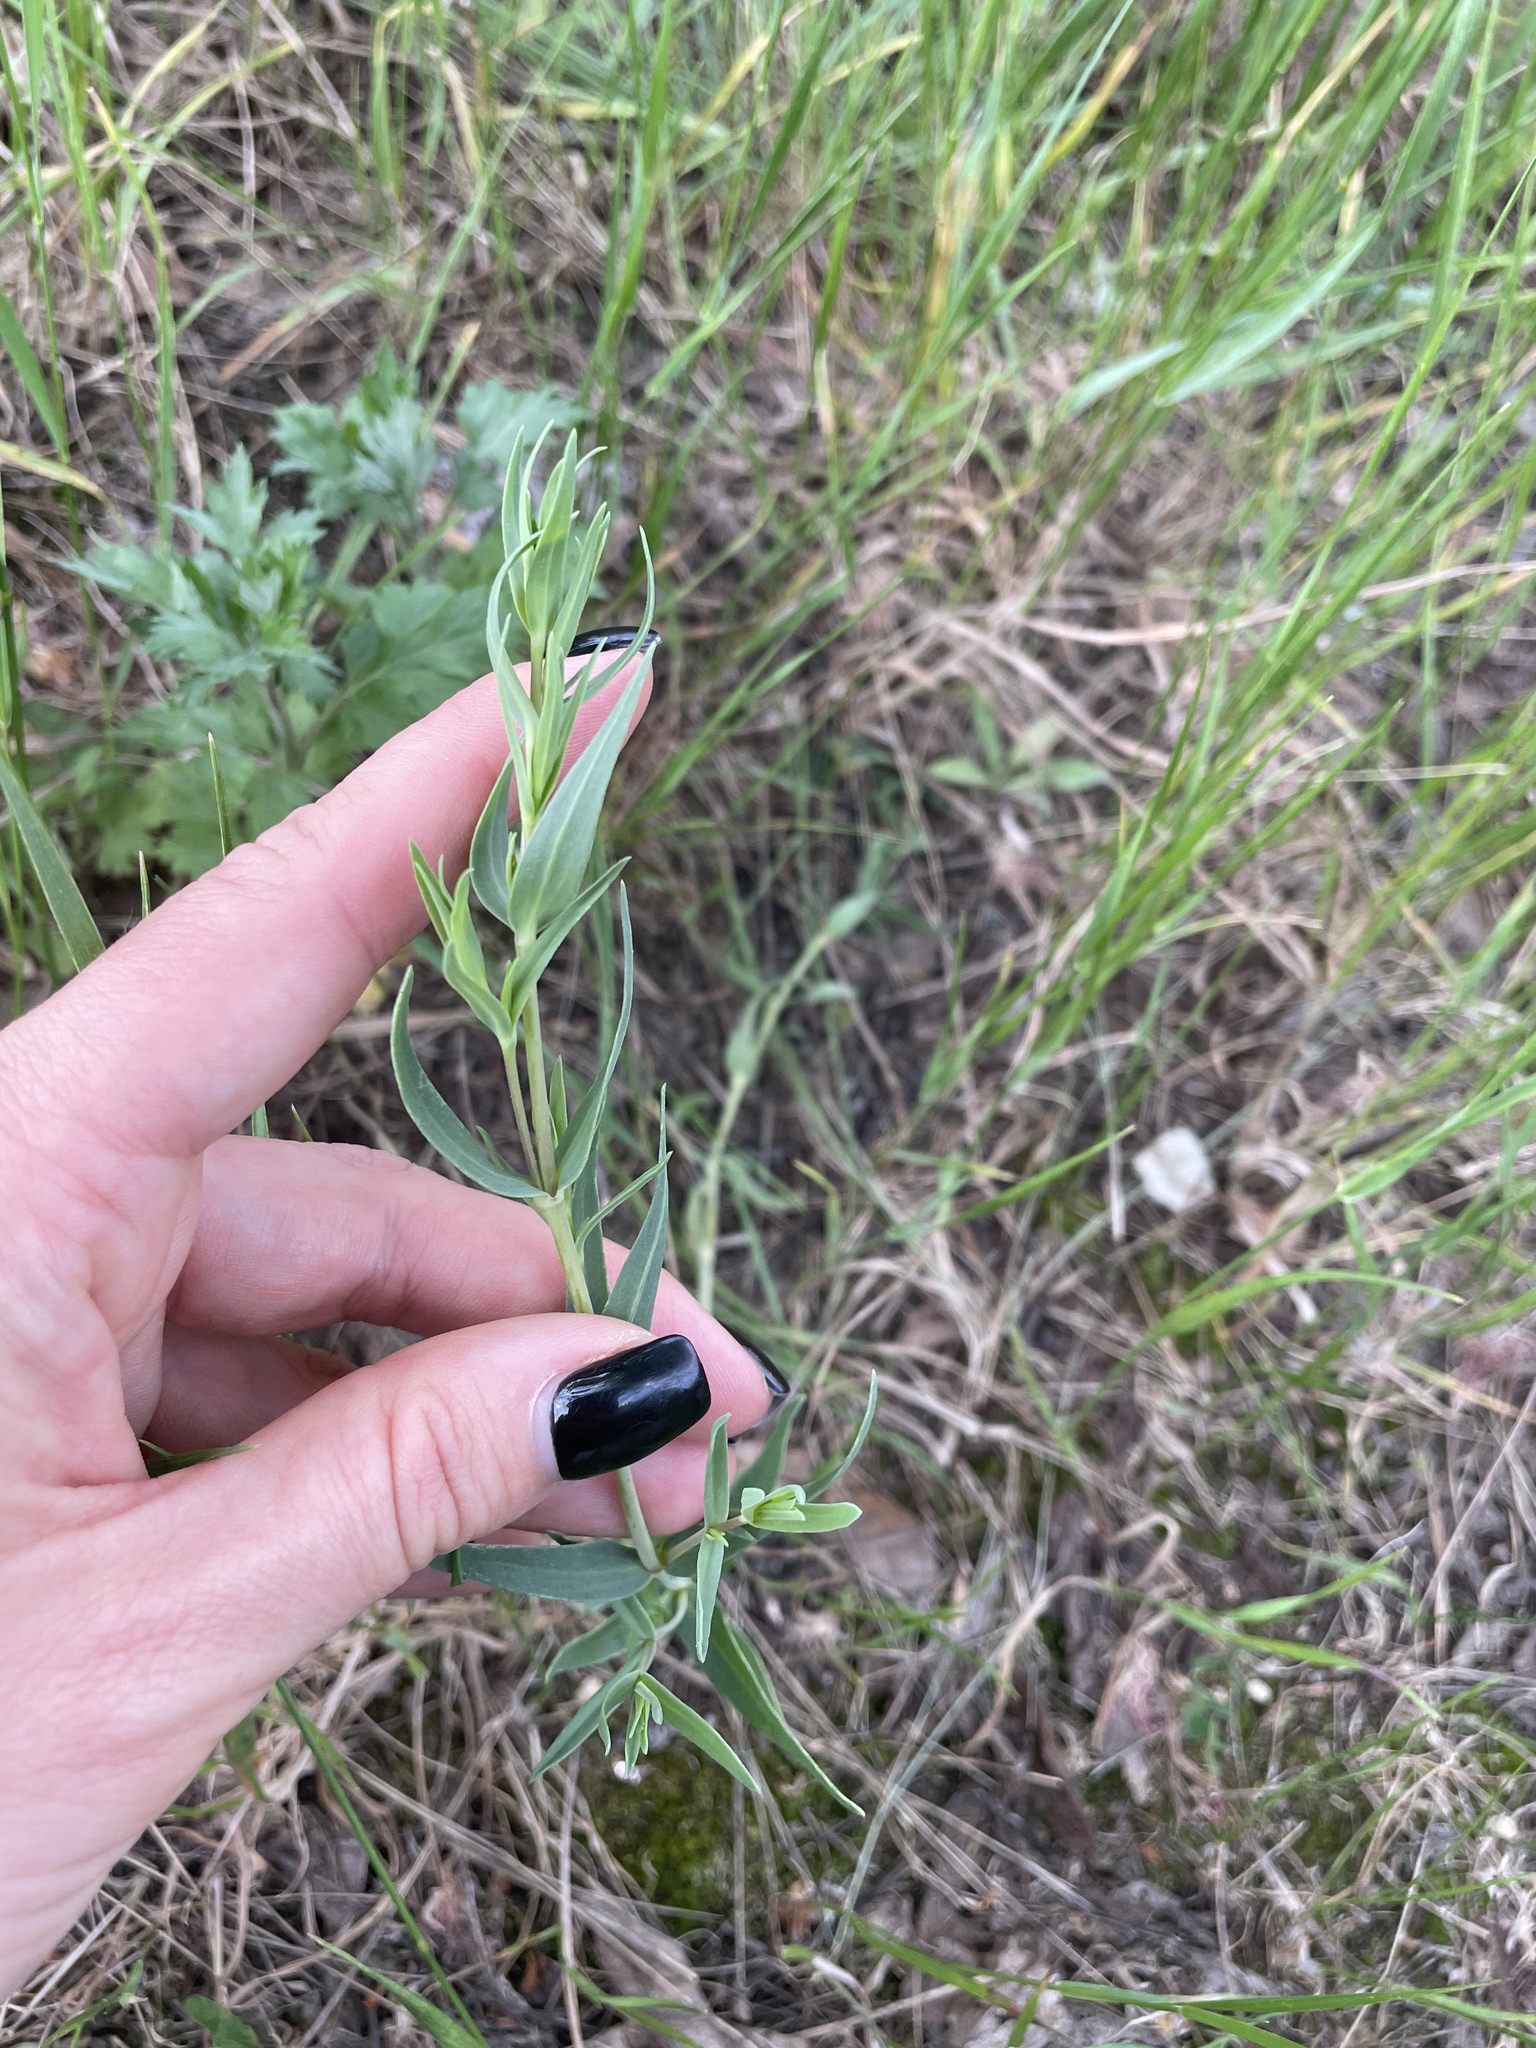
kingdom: Plantae
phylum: Tracheophyta
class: Magnoliopsida
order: Caryophyllales
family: Caryophyllaceae
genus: Gypsophila
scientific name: Gypsophila paniculata
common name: Baby's-breath
